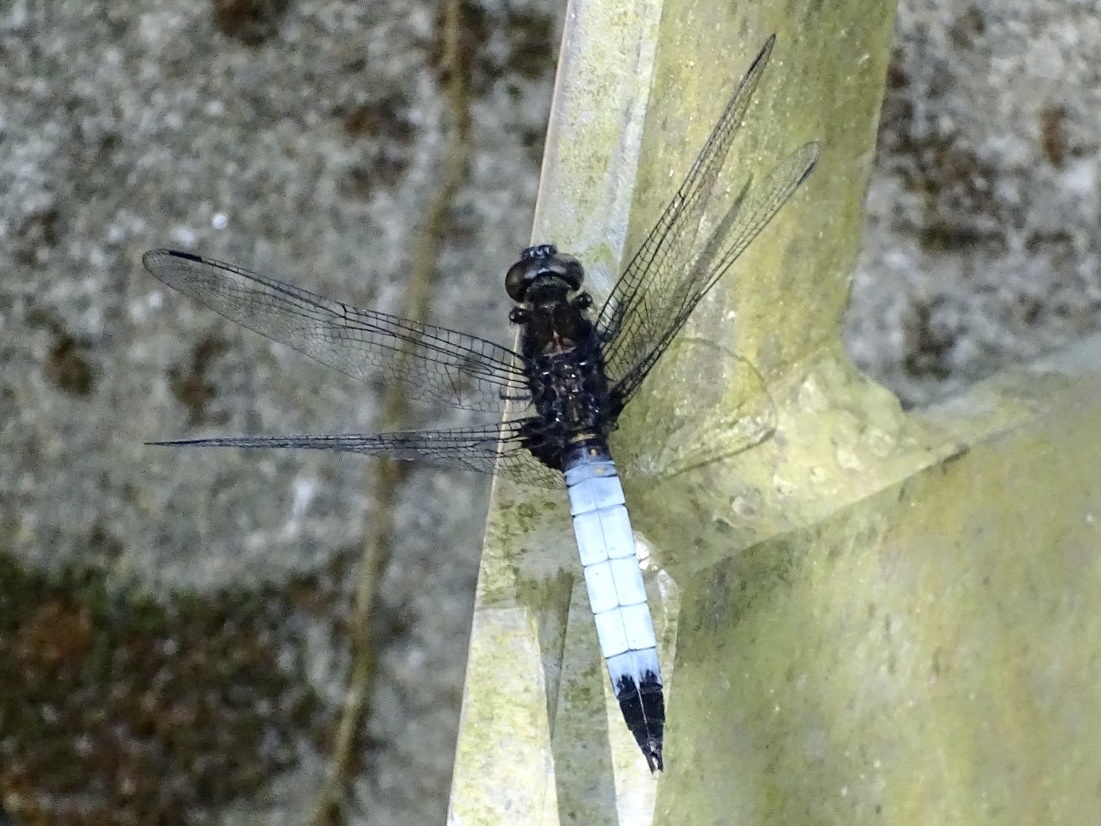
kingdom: Animalia
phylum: Arthropoda
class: Insecta
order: Odonata
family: Libellulidae
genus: Orthetrum
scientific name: Orthetrum triangulare
